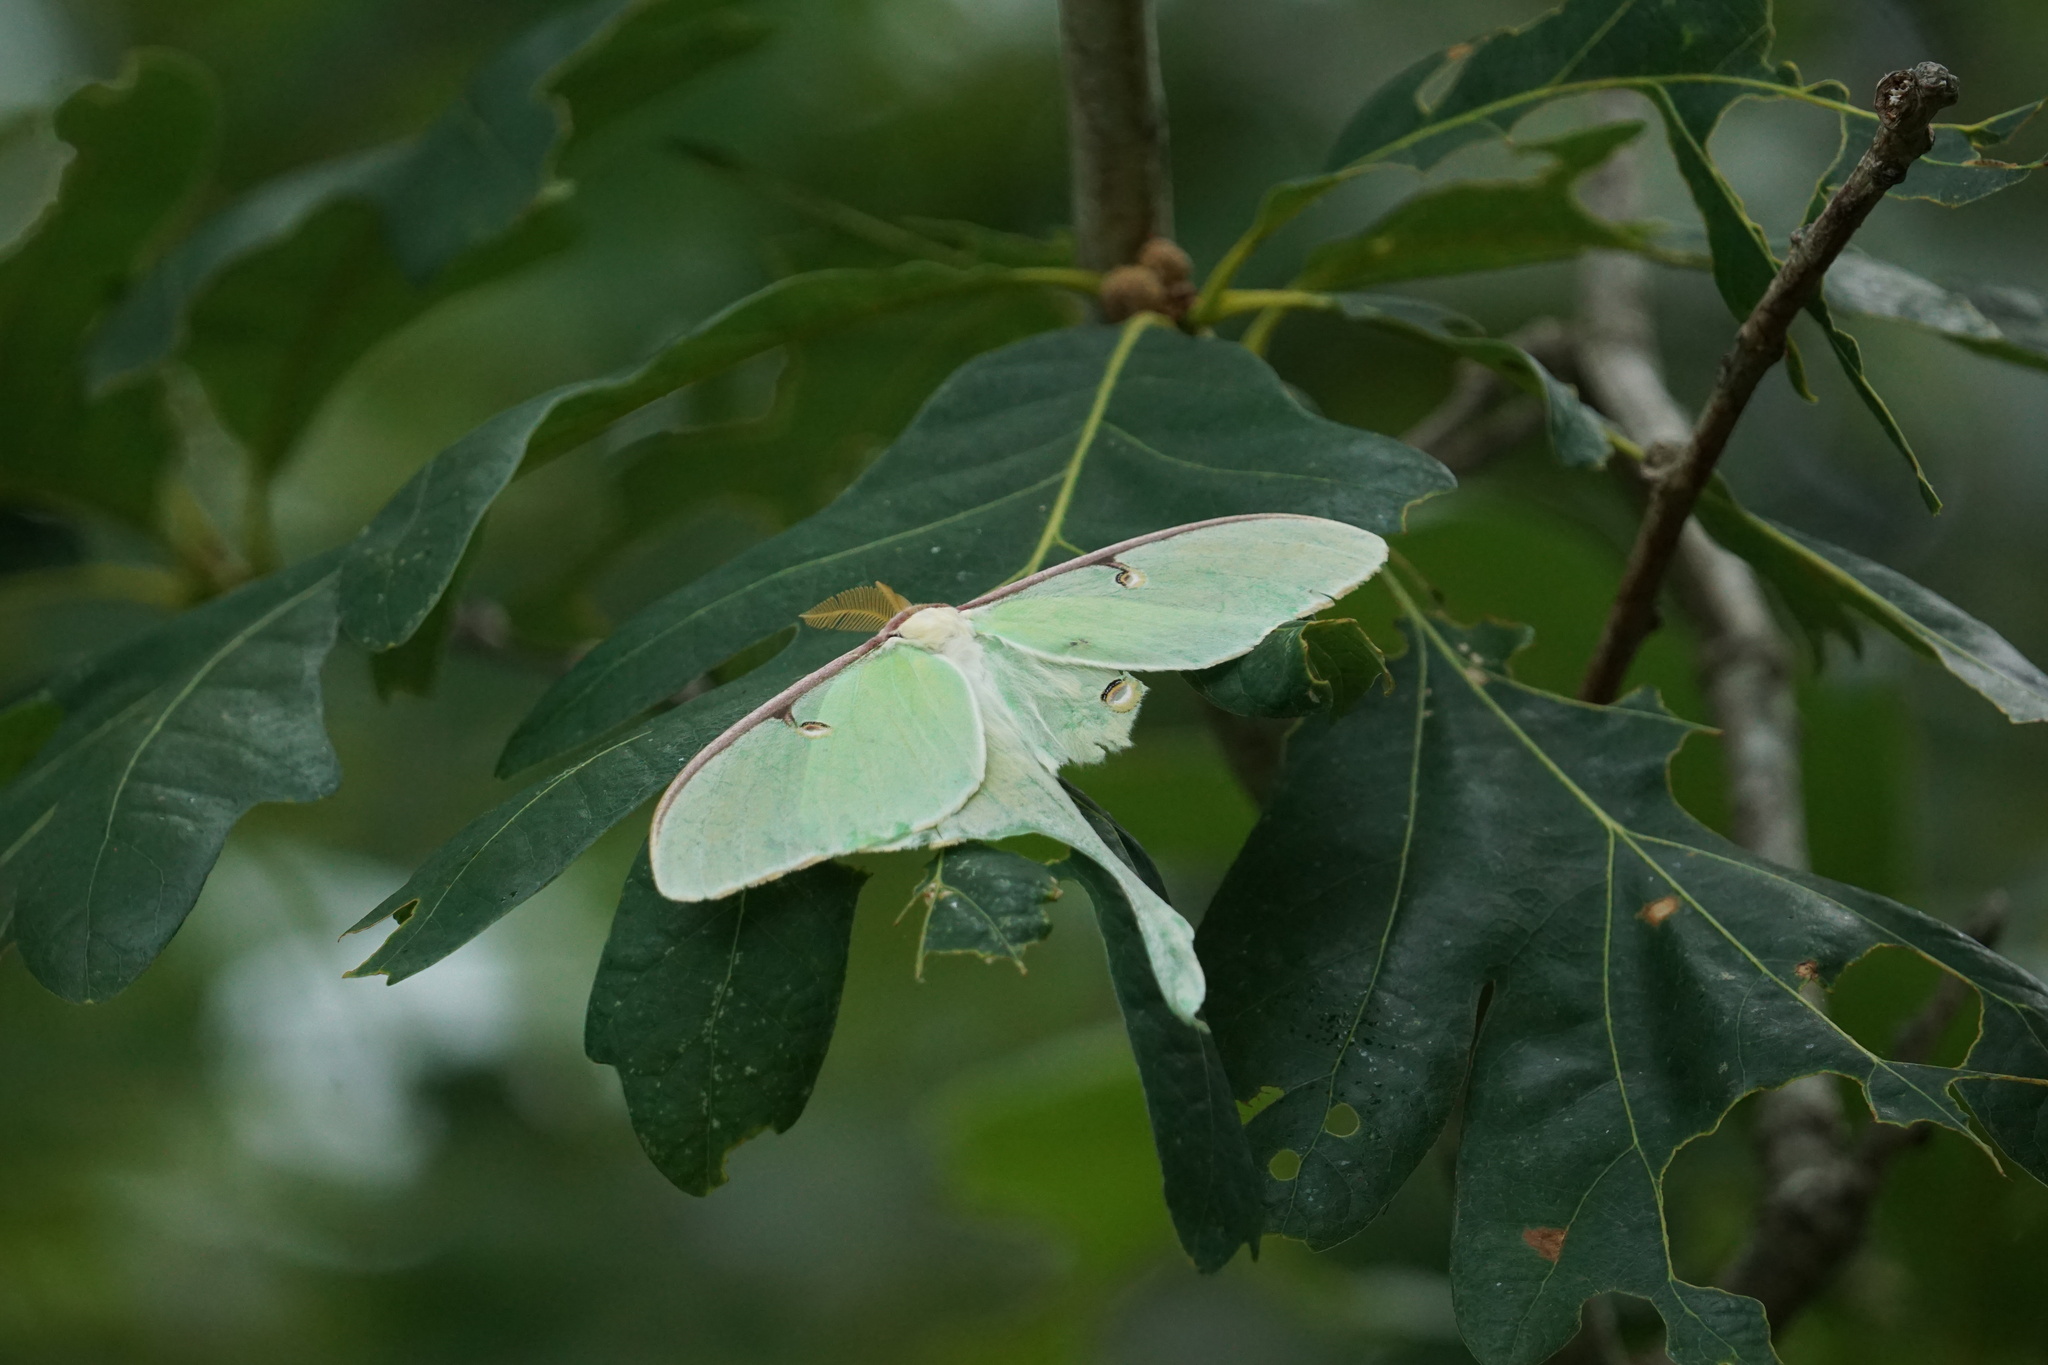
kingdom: Animalia
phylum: Arthropoda
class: Insecta
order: Lepidoptera
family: Saturniidae
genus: Actias
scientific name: Actias luna
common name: Luna moth
